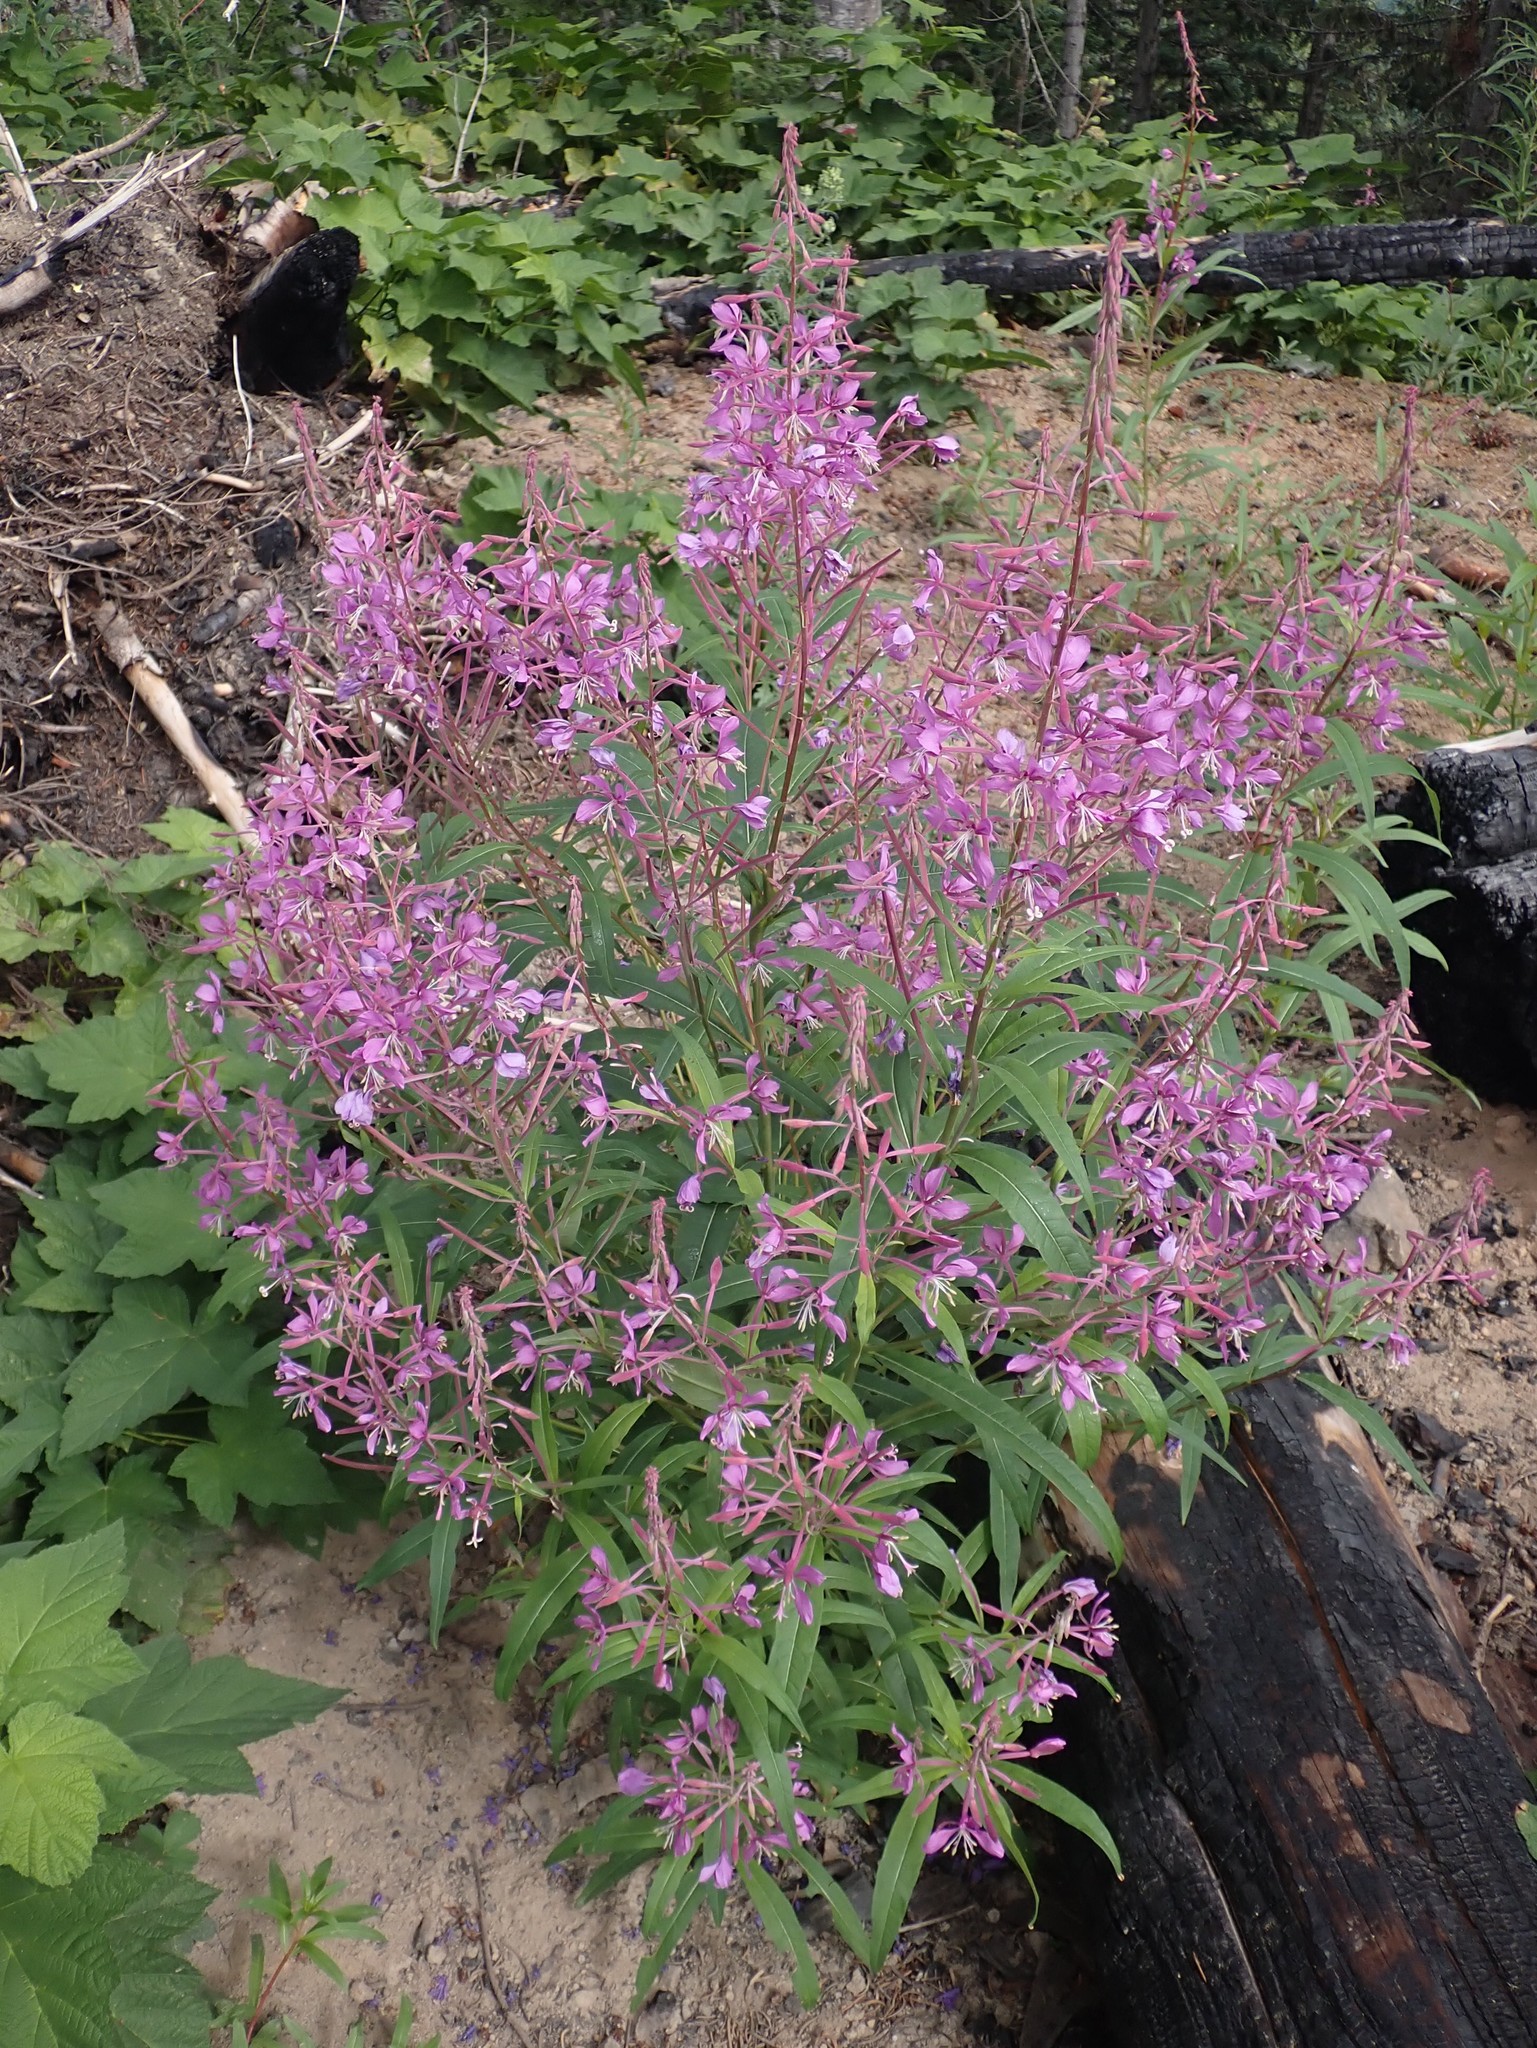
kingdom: Plantae
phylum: Tracheophyta
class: Magnoliopsida
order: Myrtales
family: Onagraceae
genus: Chamaenerion
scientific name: Chamaenerion angustifolium
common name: Fireweed
